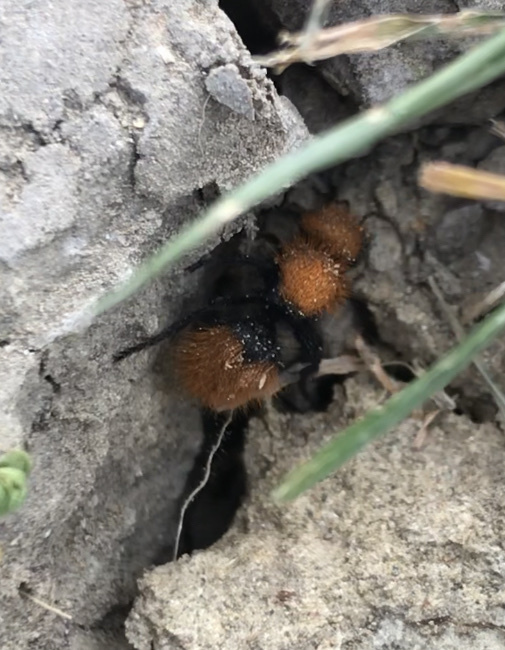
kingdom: Animalia
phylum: Arthropoda
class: Insecta
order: Hymenoptera
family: Mutillidae
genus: Dasymutilla
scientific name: Dasymutilla
